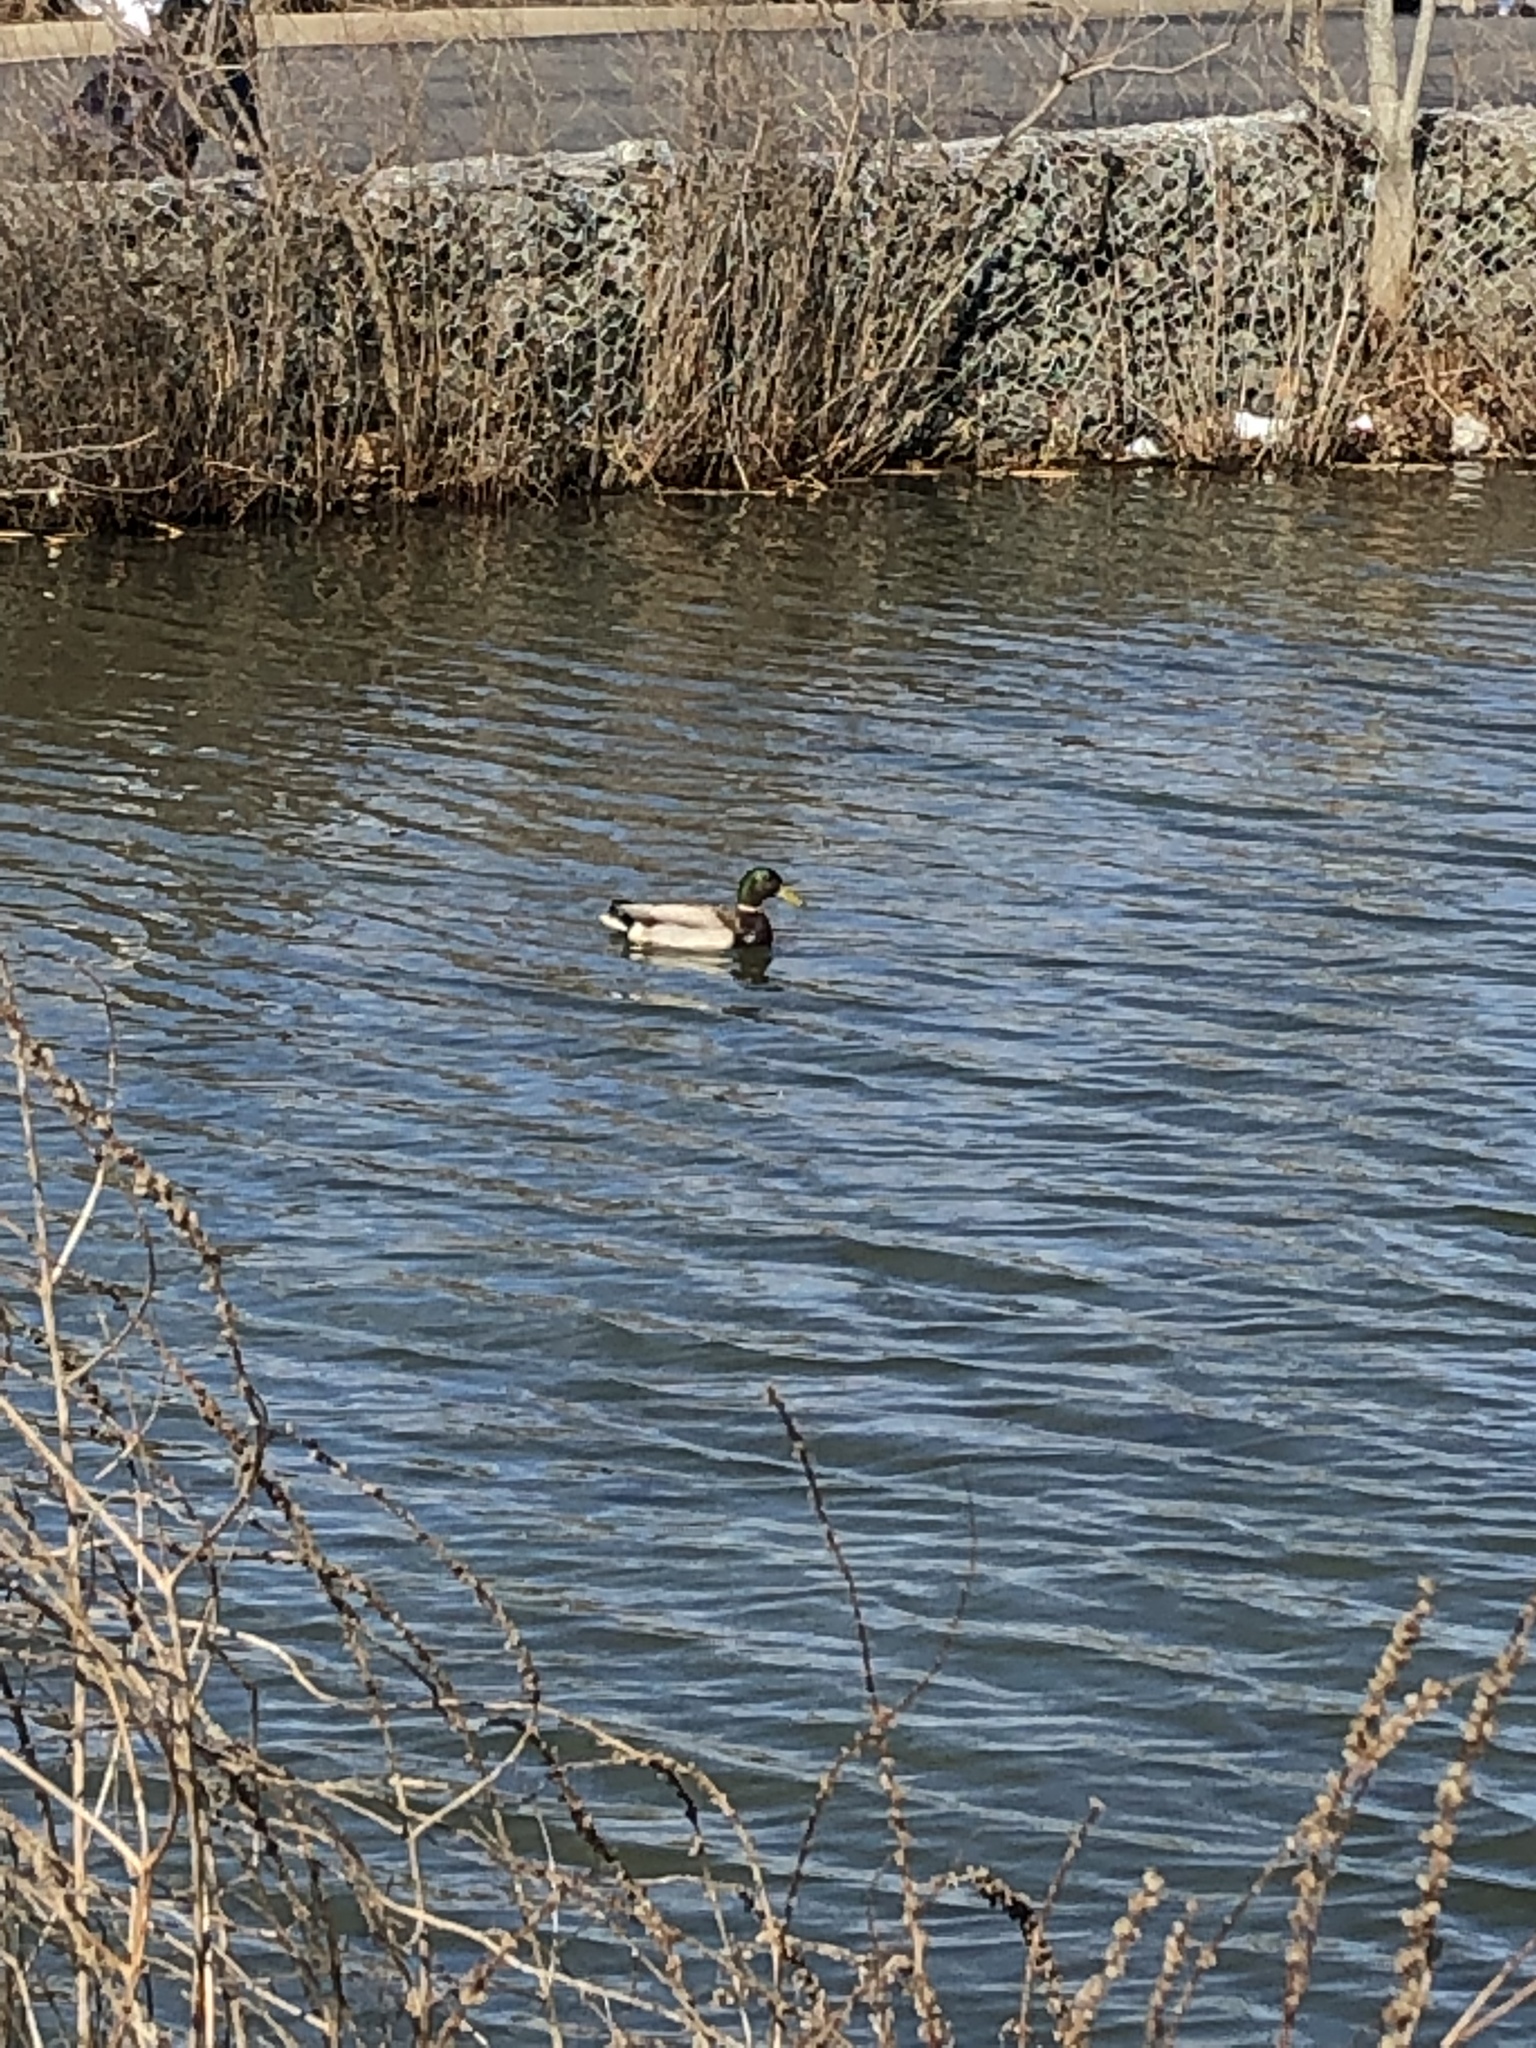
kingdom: Animalia
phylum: Chordata
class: Aves
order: Anseriformes
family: Anatidae
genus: Anas
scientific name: Anas platyrhynchos
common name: Mallard
